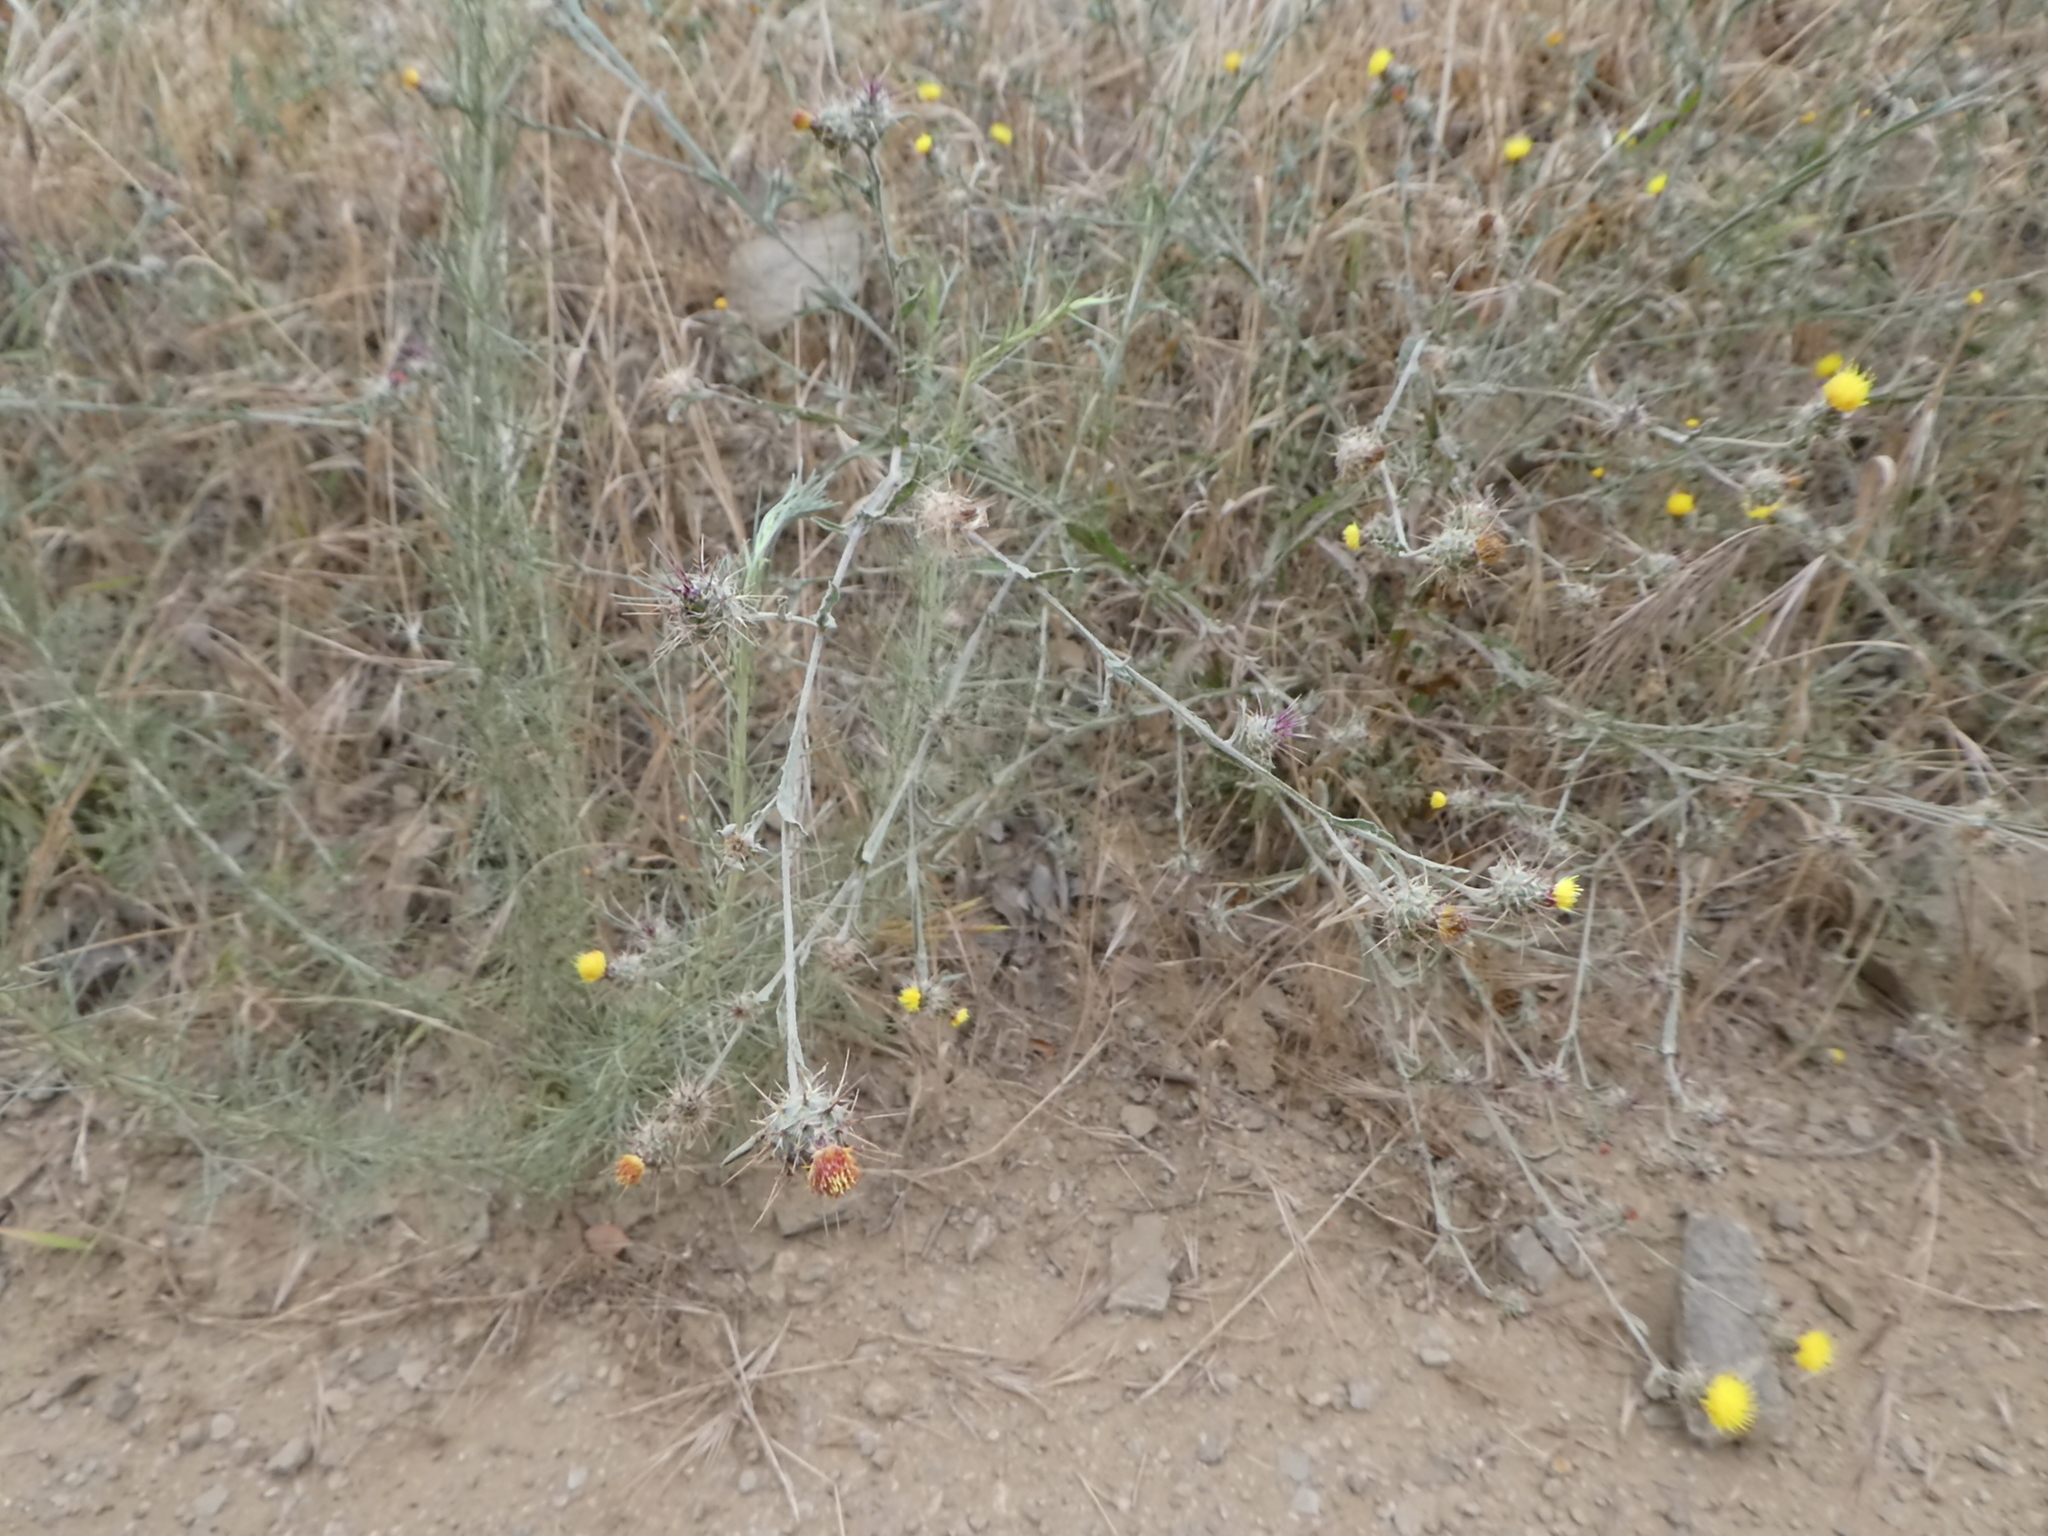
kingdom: Plantae
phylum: Tracheophyta
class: Magnoliopsida
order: Asterales
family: Asteraceae
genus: Centaurea
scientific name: Centaurea melitensis
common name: Maltese star-thistle
